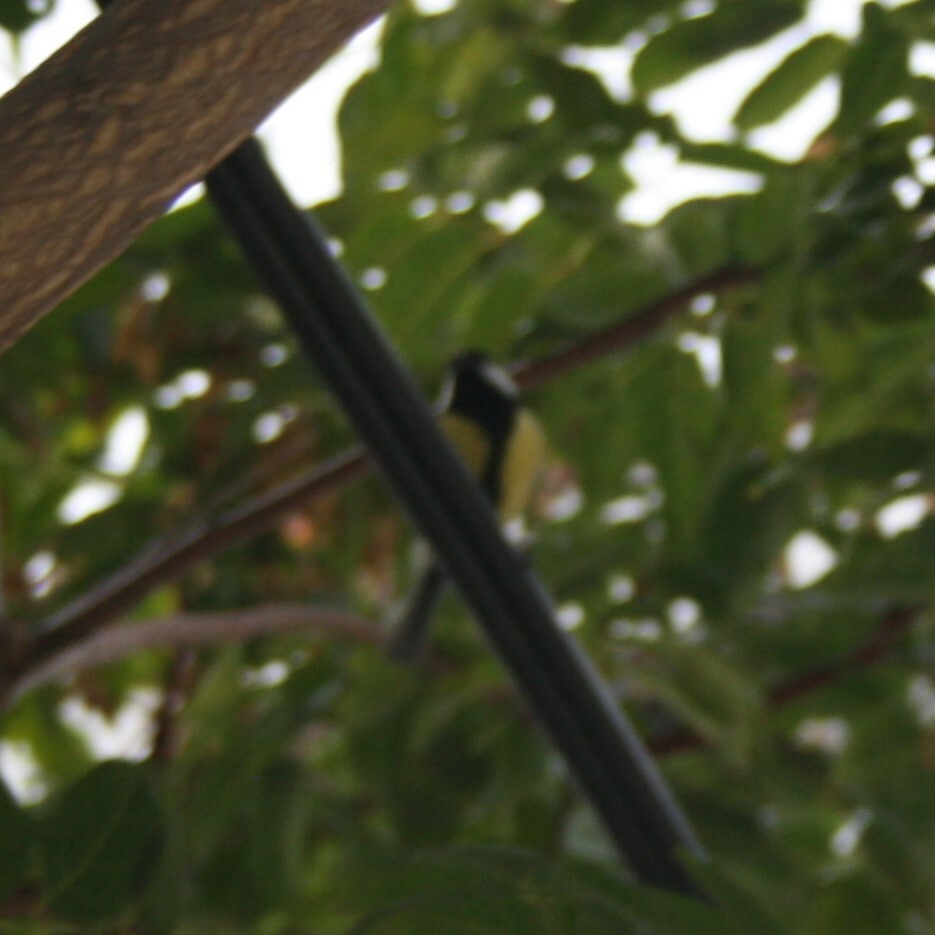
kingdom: Animalia
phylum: Chordata
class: Aves
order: Passeriformes
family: Paridae
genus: Parus
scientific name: Parus major
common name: Great tit
